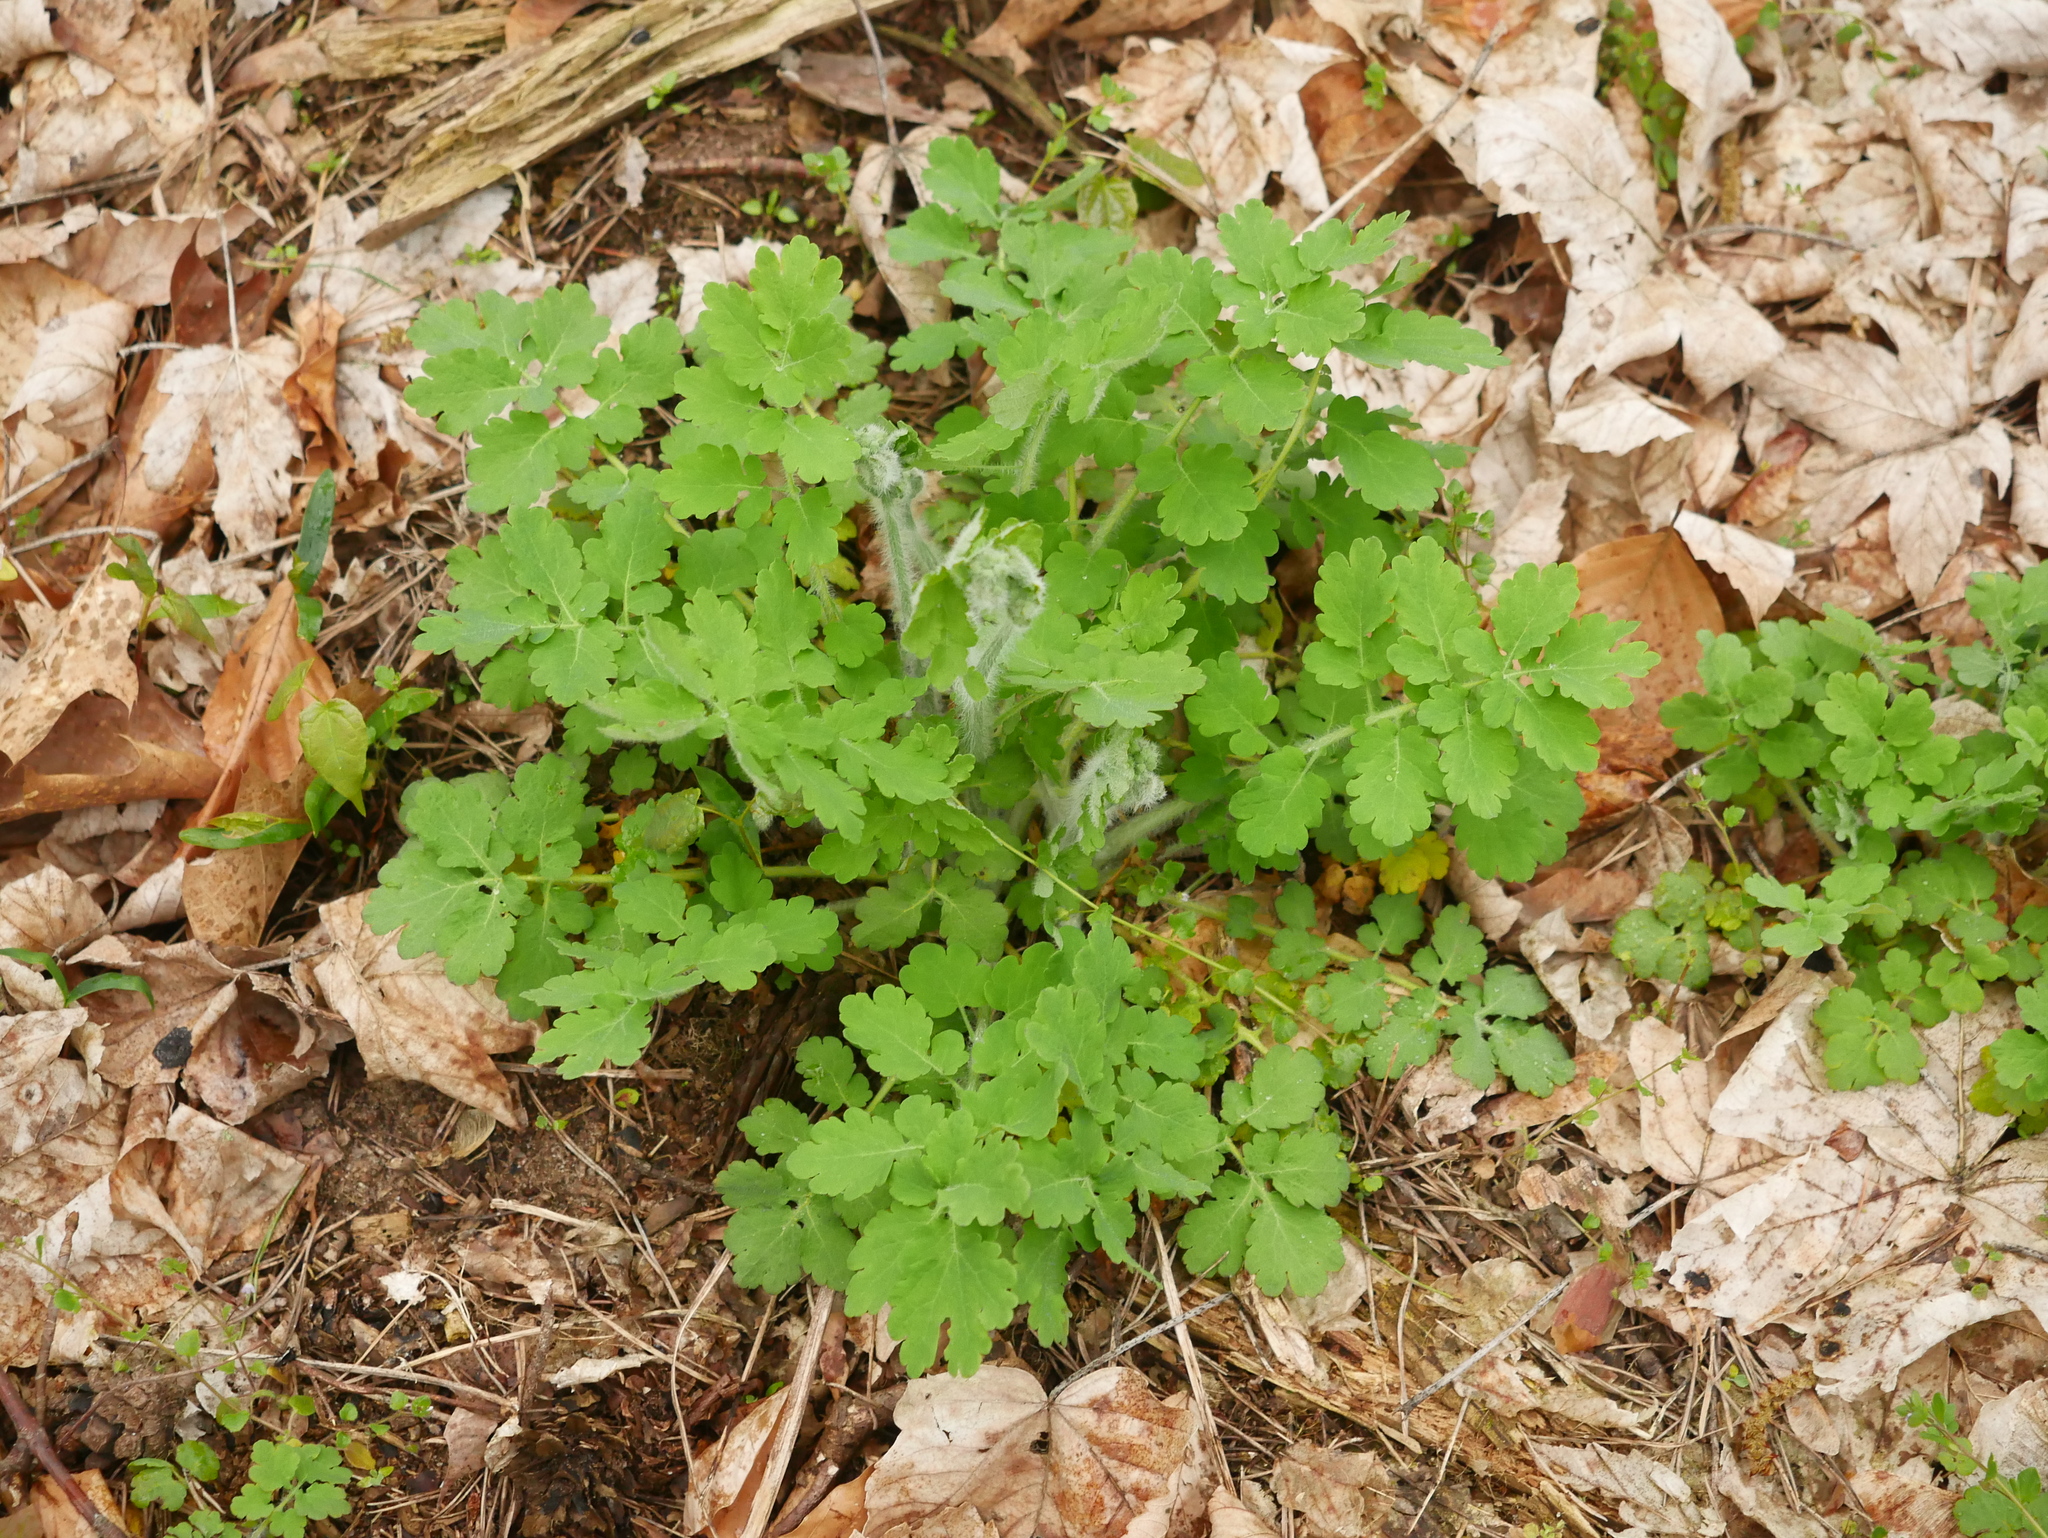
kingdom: Plantae
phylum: Tracheophyta
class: Magnoliopsida
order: Ranunculales
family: Papaveraceae
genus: Chelidonium
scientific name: Chelidonium majus
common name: Greater celandine
